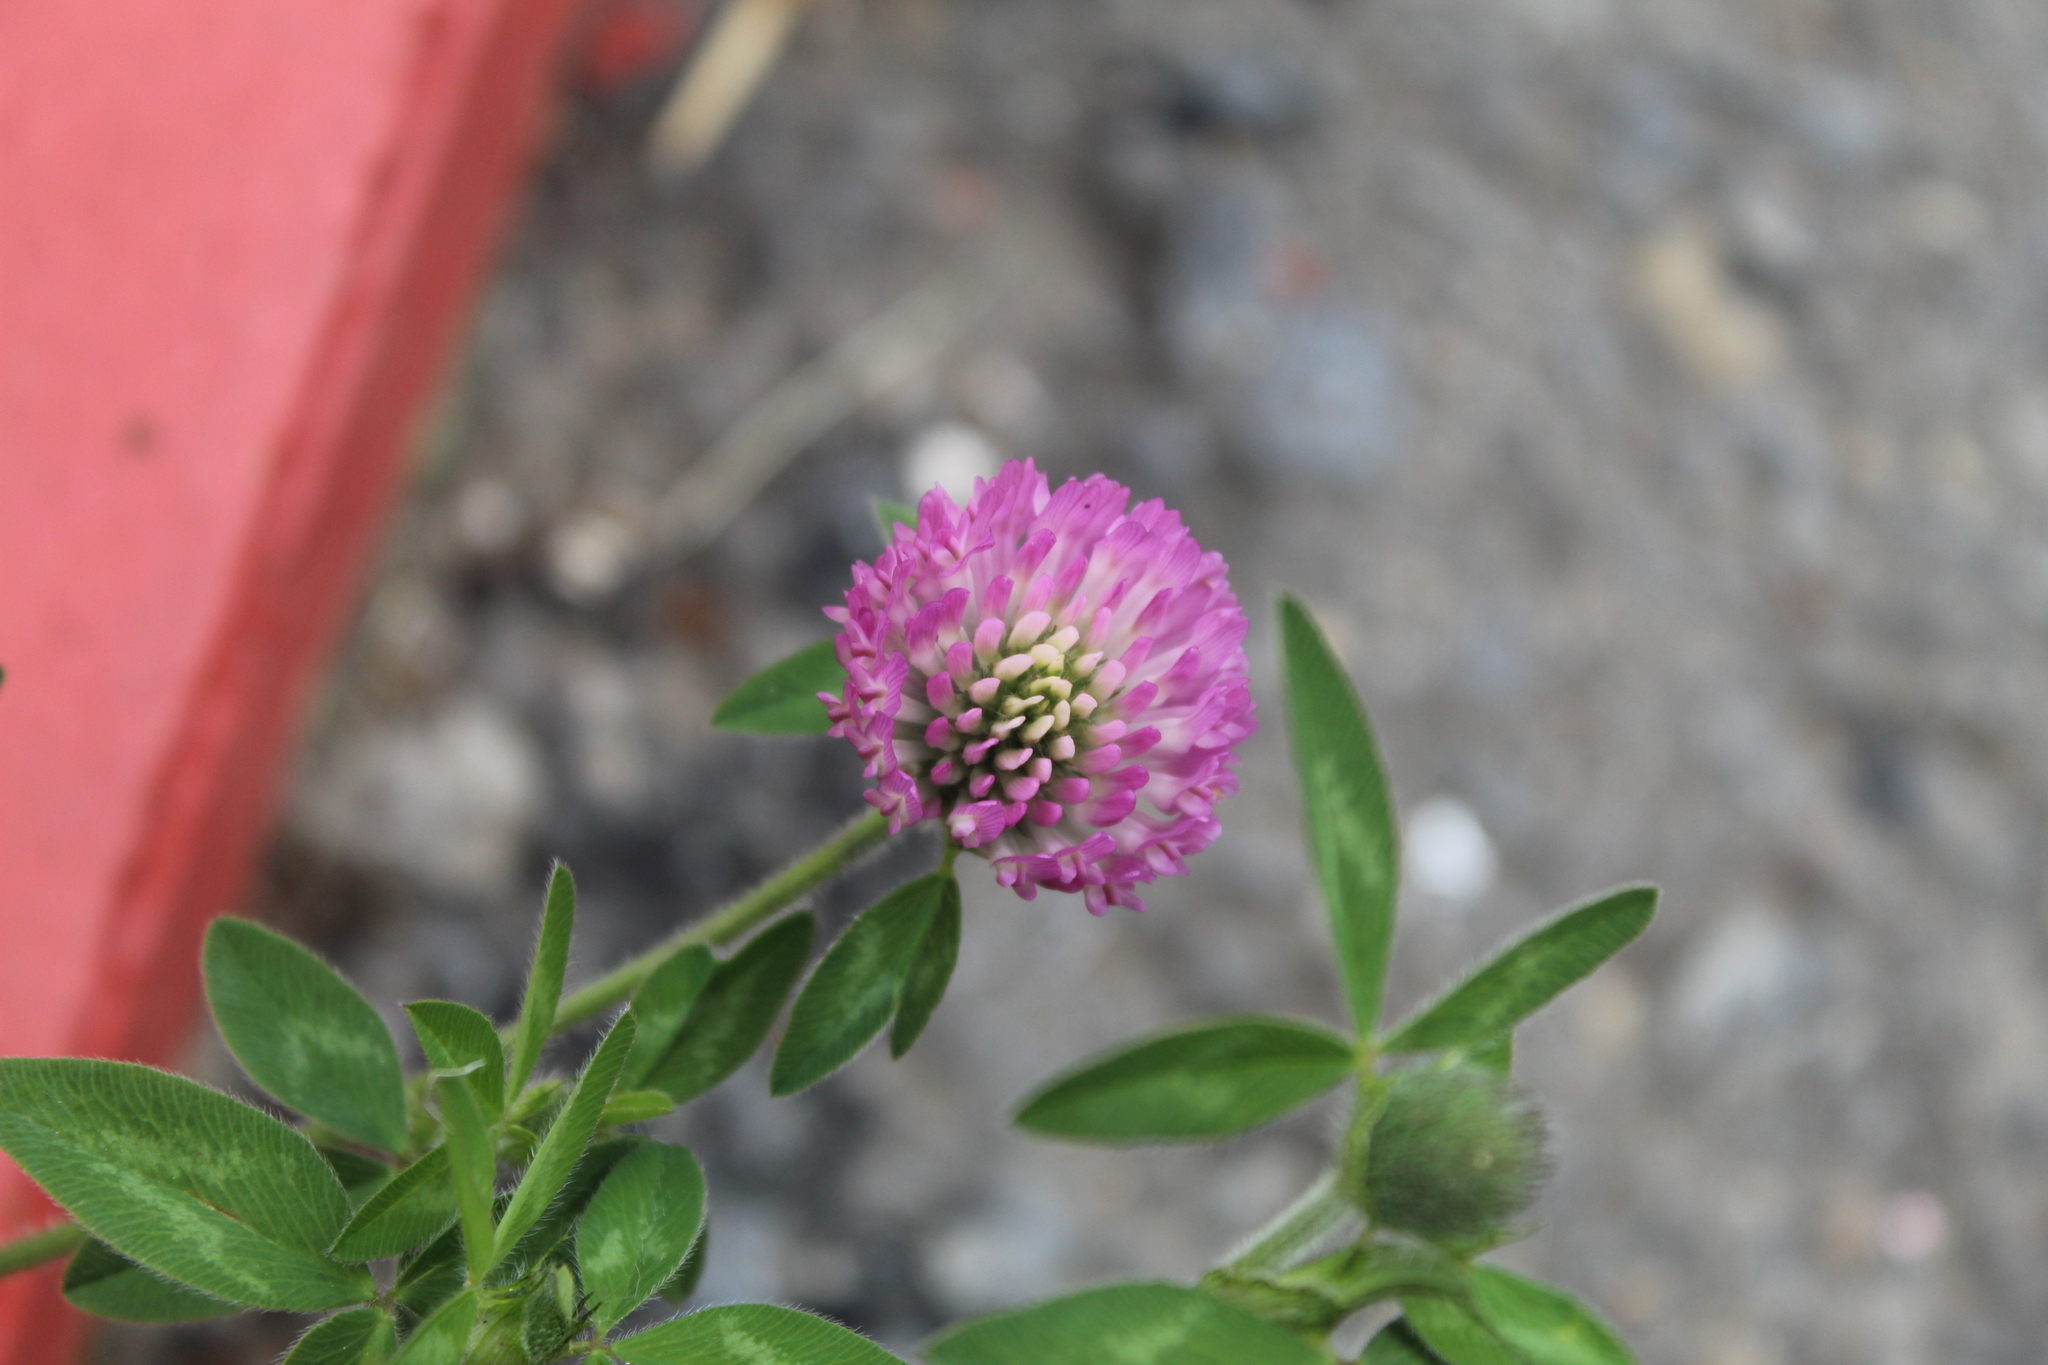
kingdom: Plantae
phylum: Tracheophyta
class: Magnoliopsida
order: Fabales
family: Fabaceae
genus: Trifolium
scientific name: Trifolium pratense
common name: Red clover
